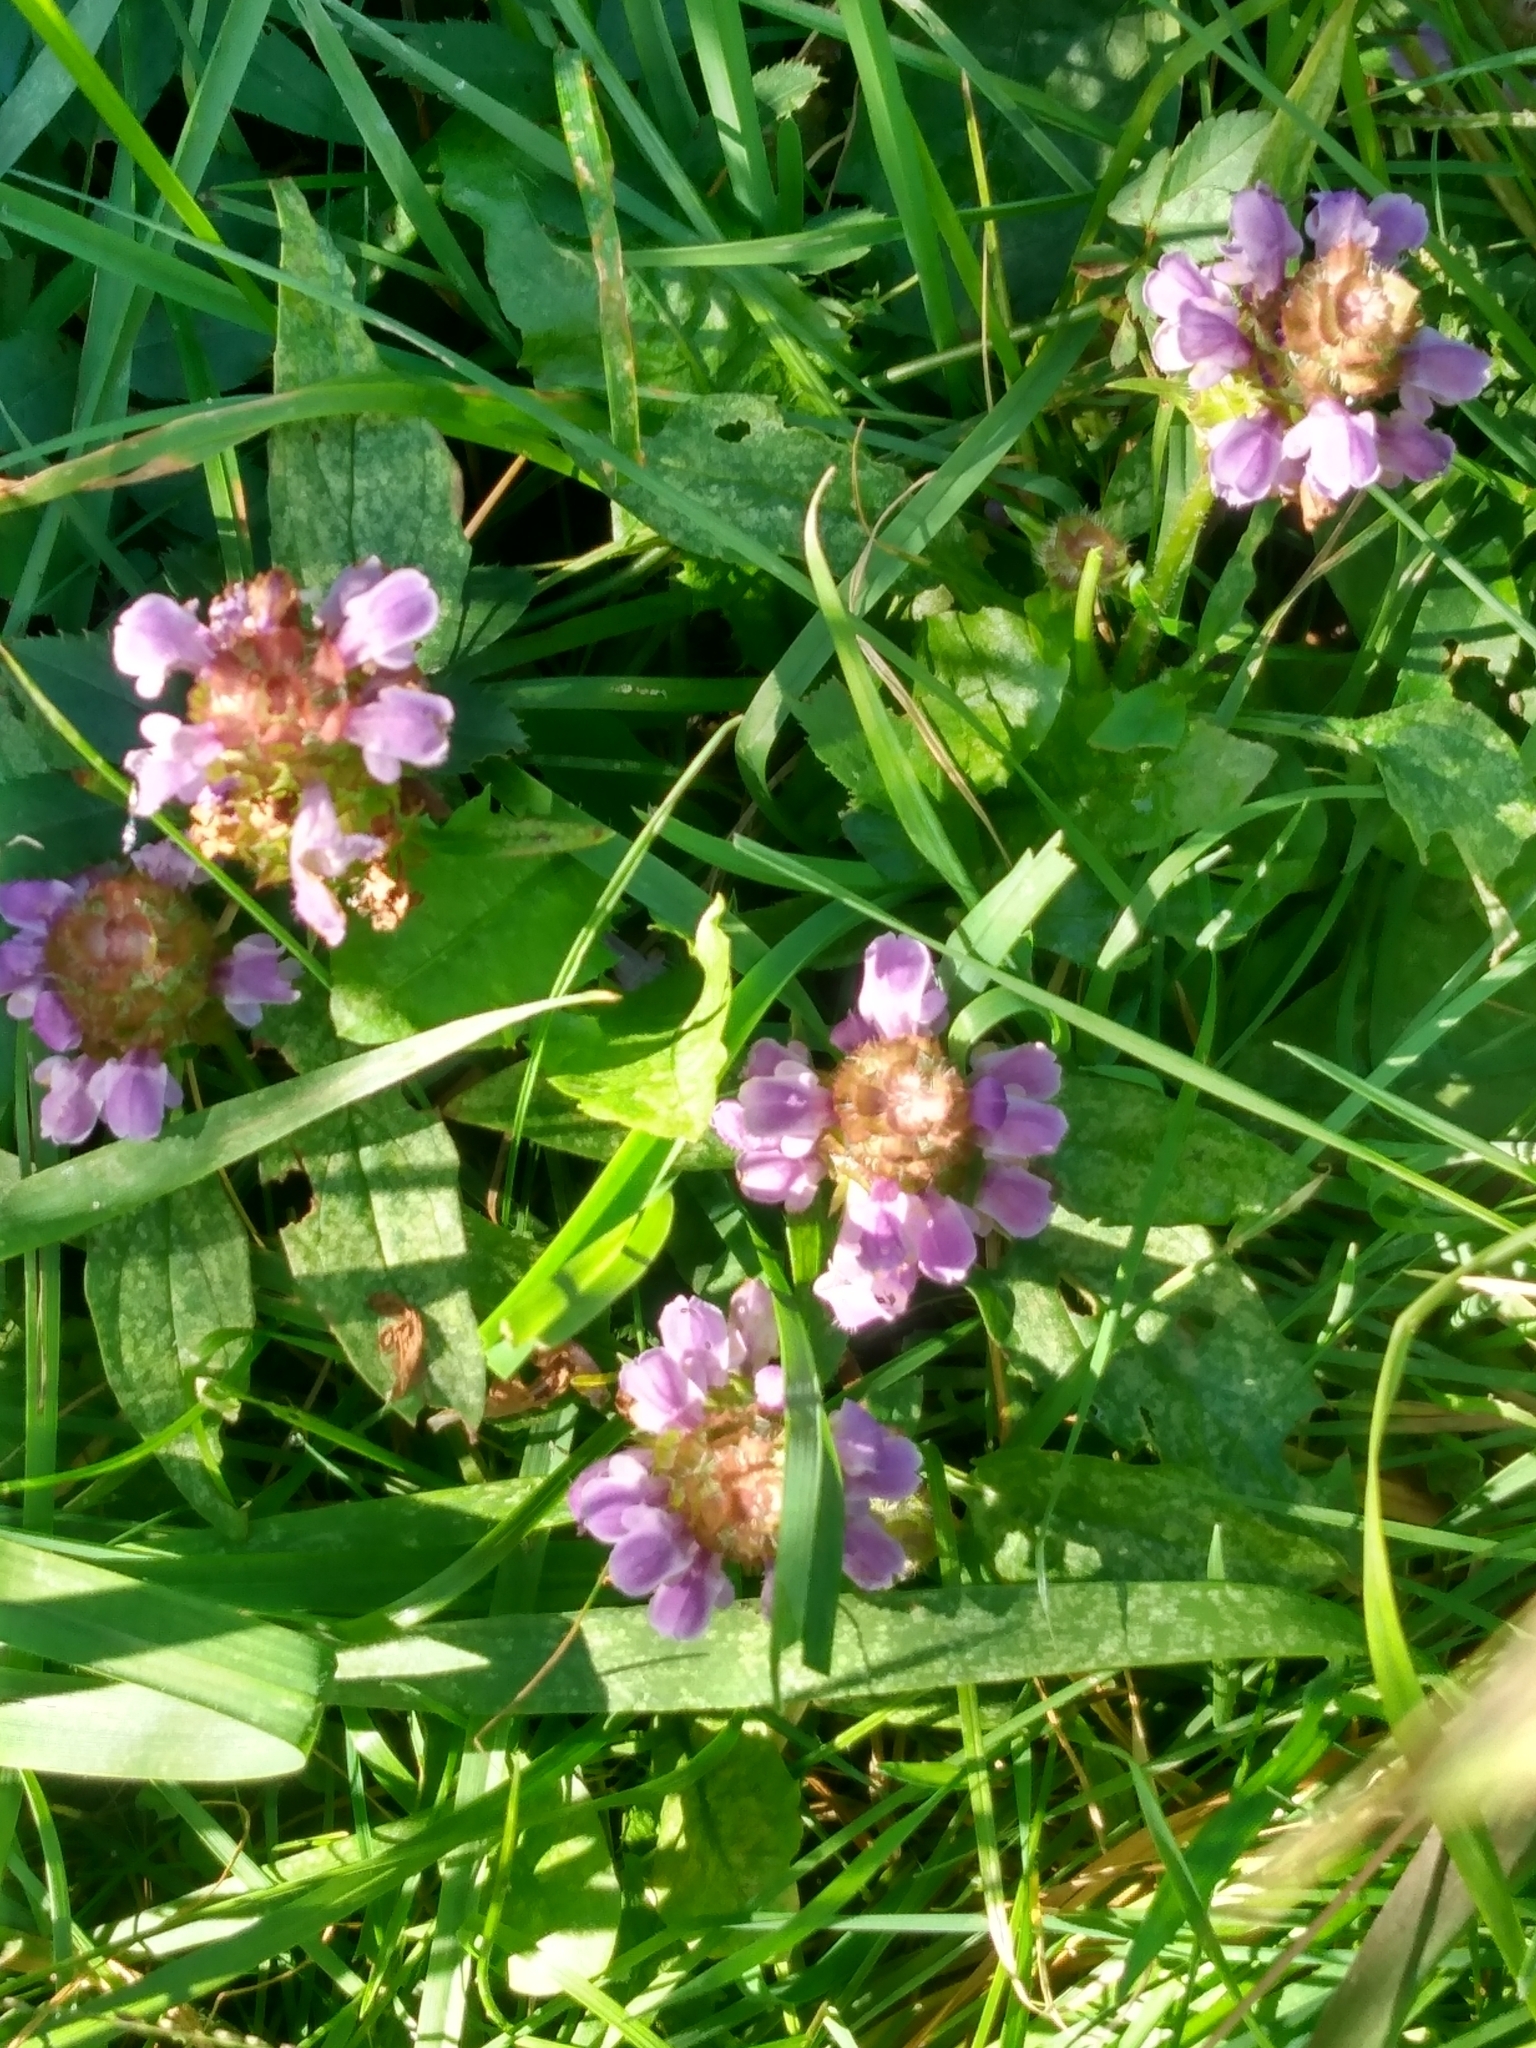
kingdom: Plantae
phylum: Tracheophyta
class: Magnoliopsida
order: Lamiales
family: Lamiaceae
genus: Prunella
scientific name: Prunella vulgaris
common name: Heal-all
